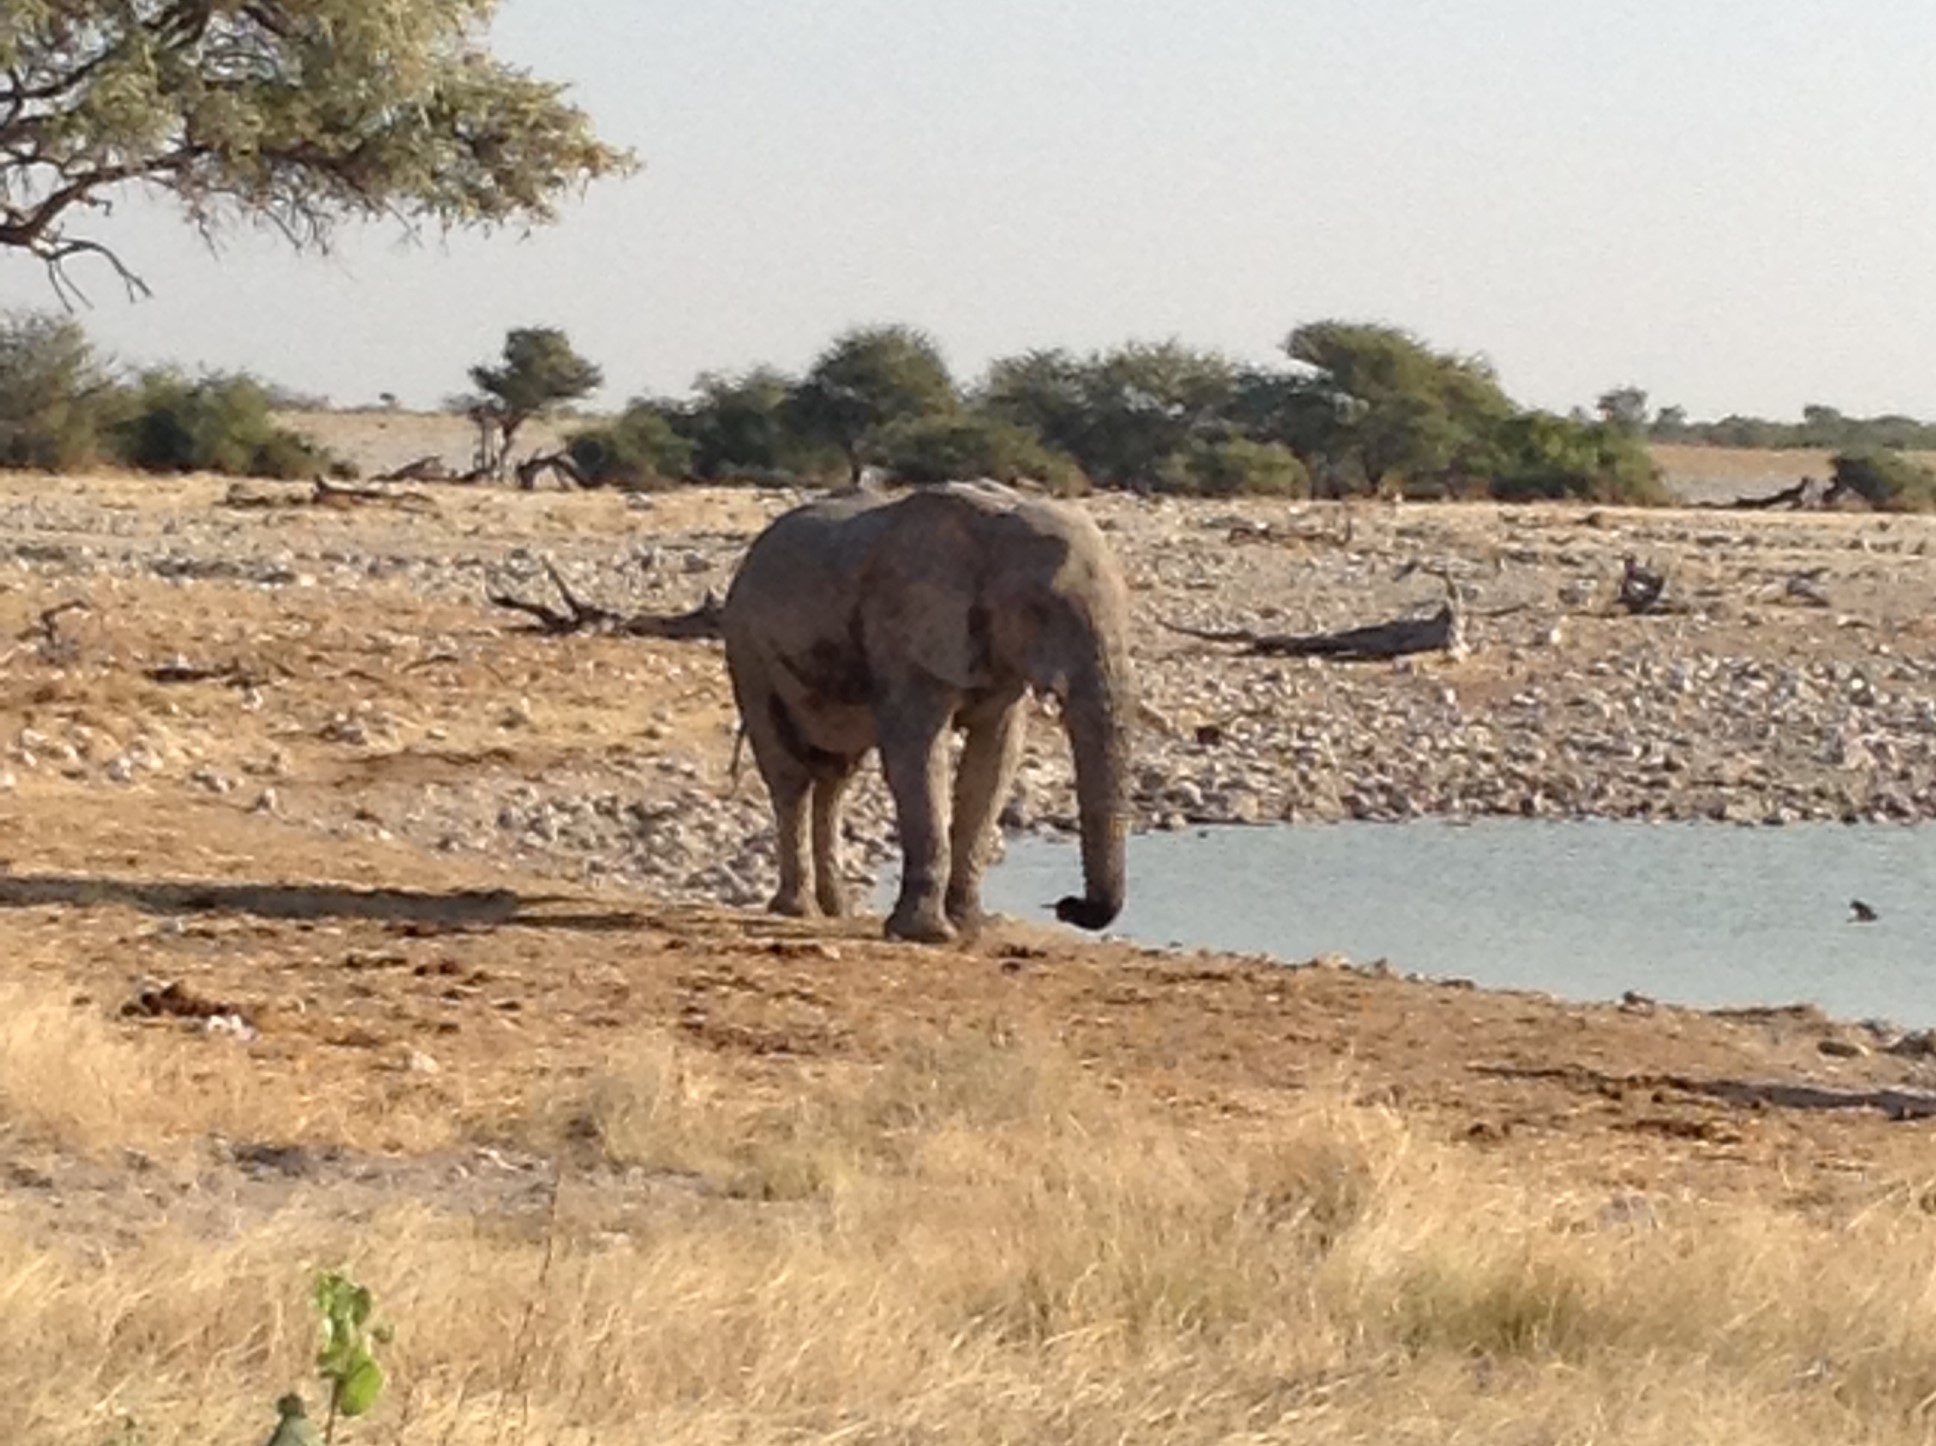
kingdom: Animalia
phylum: Chordata
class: Mammalia
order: Proboscidea
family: Elephantidae
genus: Loxodonta
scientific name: Loxodonta africana
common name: African elephant
